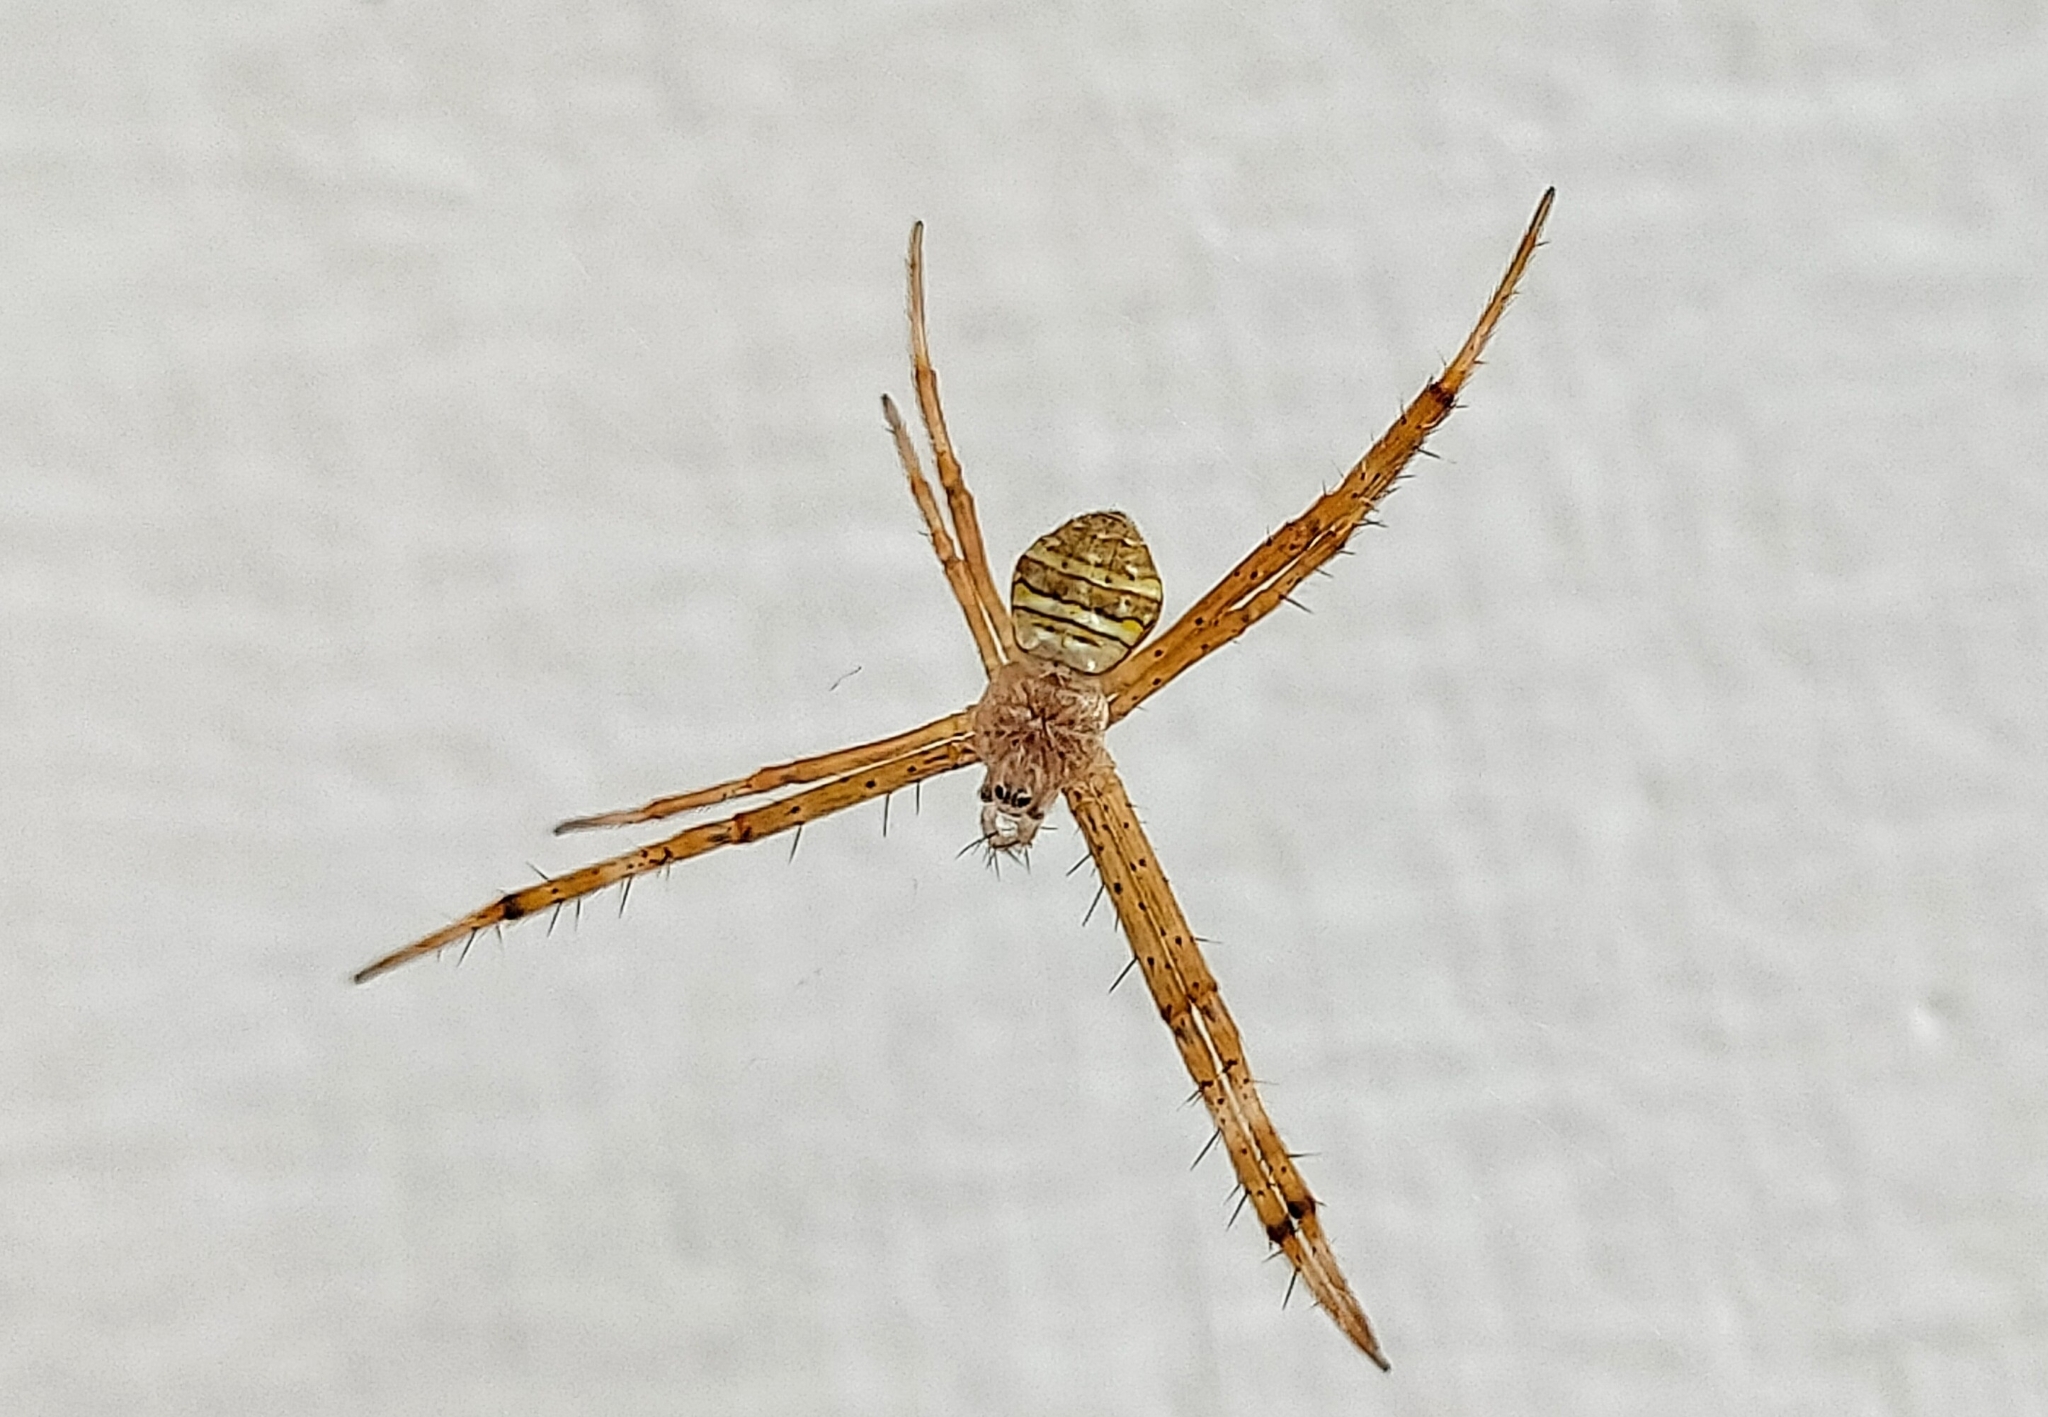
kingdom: Animalia
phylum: Arthropoda
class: Arachnida
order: Araneae
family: Araneidae
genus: Argiope
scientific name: Argiope aemula
